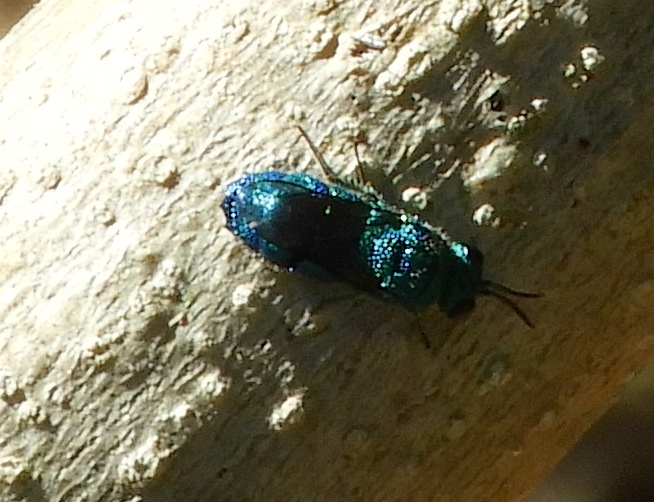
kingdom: Animalia
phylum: Arthropoda
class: Insecta
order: Hymenoptera
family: Chrysididae
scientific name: Chrysididae
